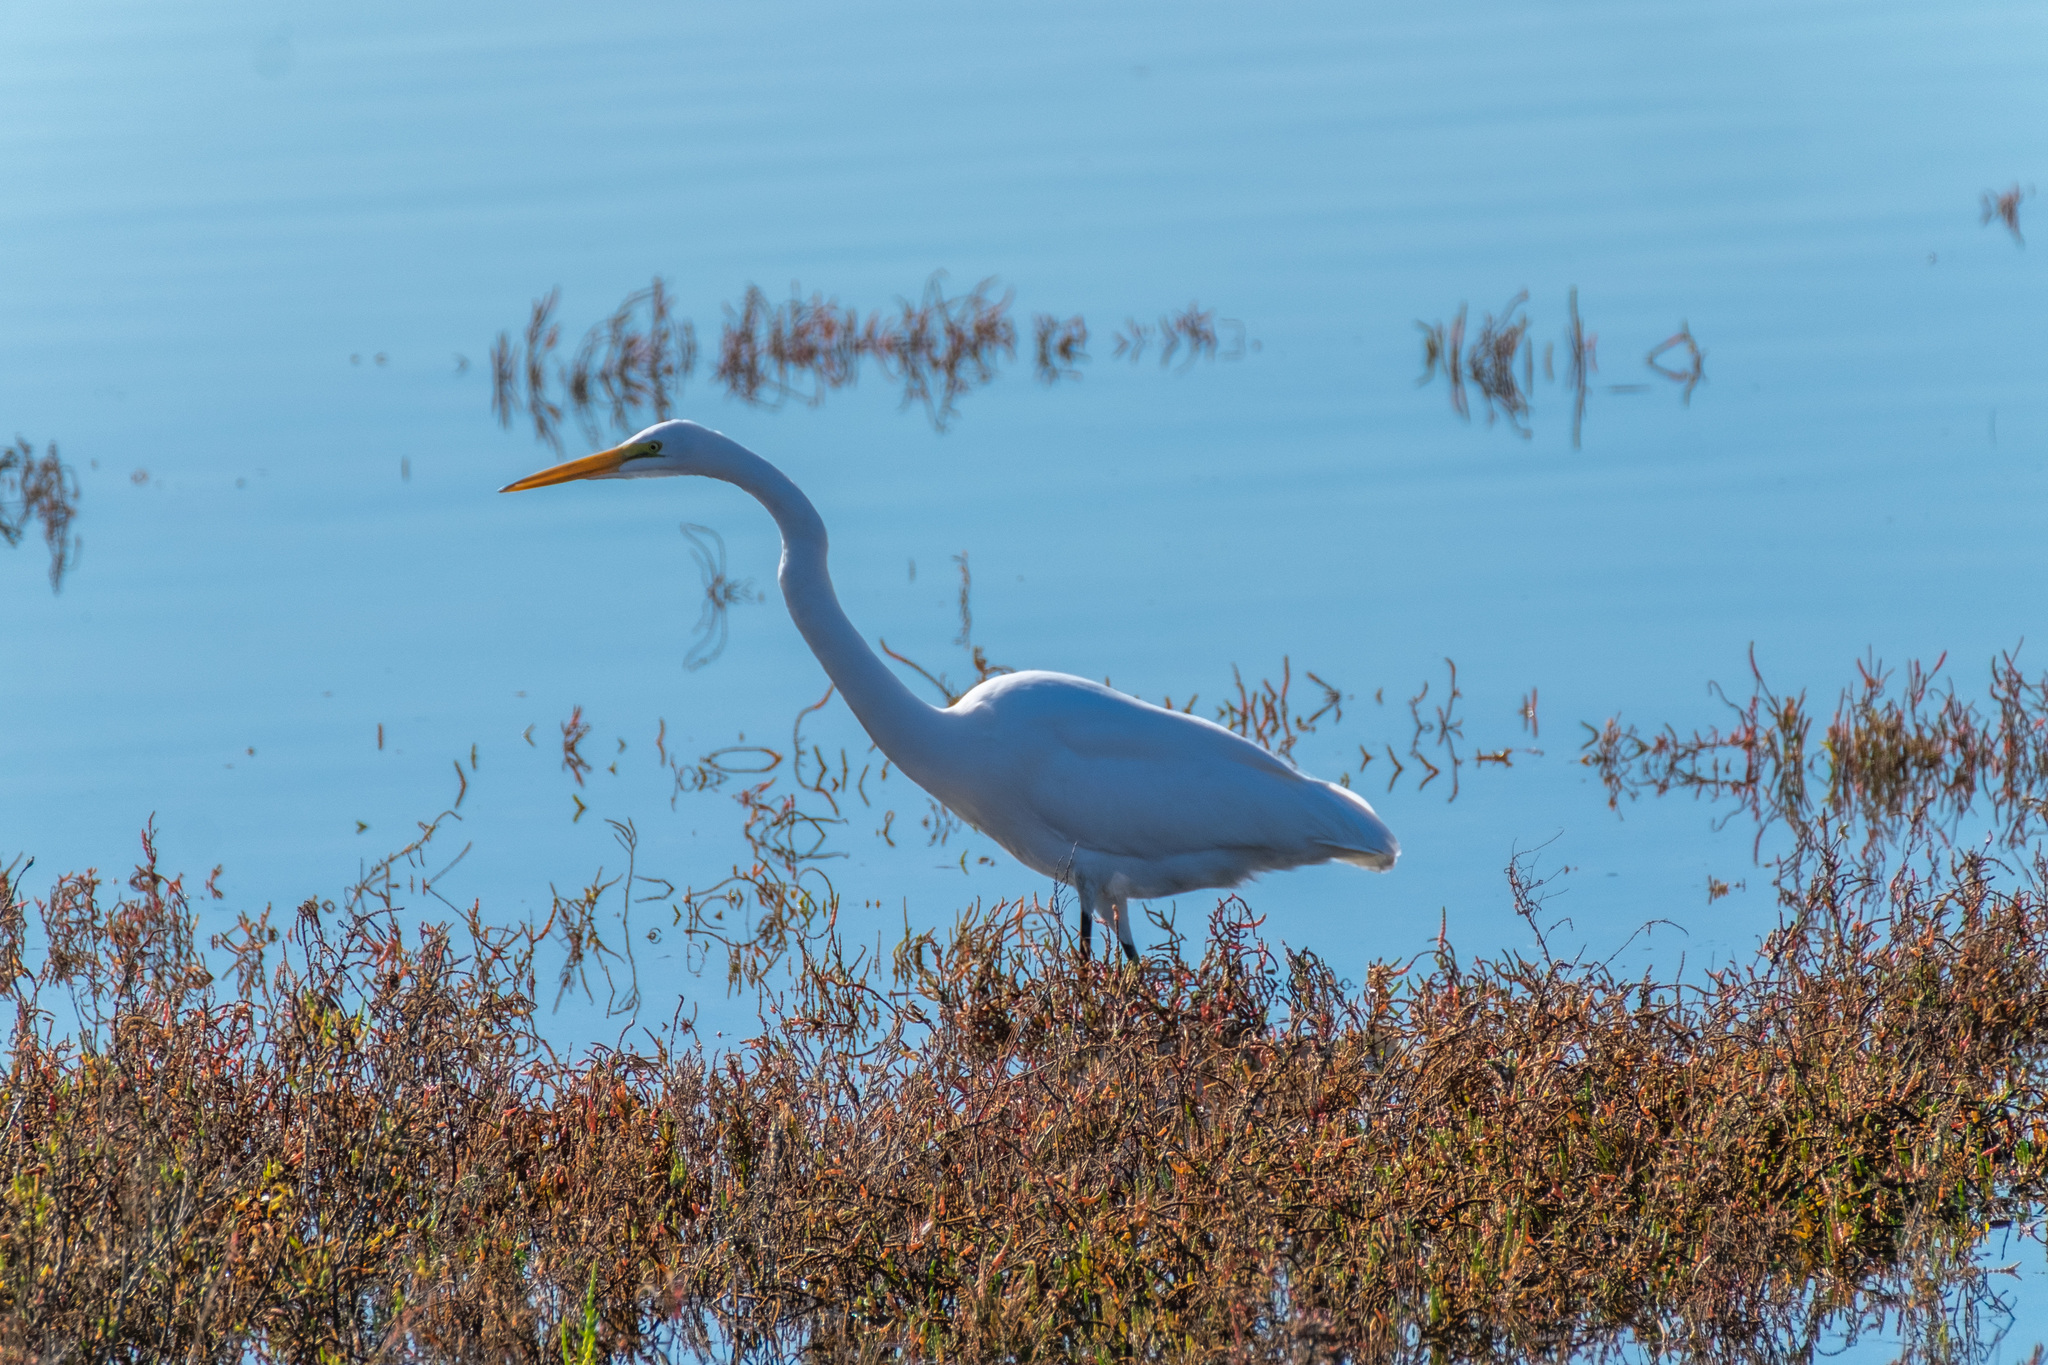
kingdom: Animalia
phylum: Chordata
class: Aves
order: Pelecaniformes
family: Ardeidae
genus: Ardea
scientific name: Ardea alba
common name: Great egret
